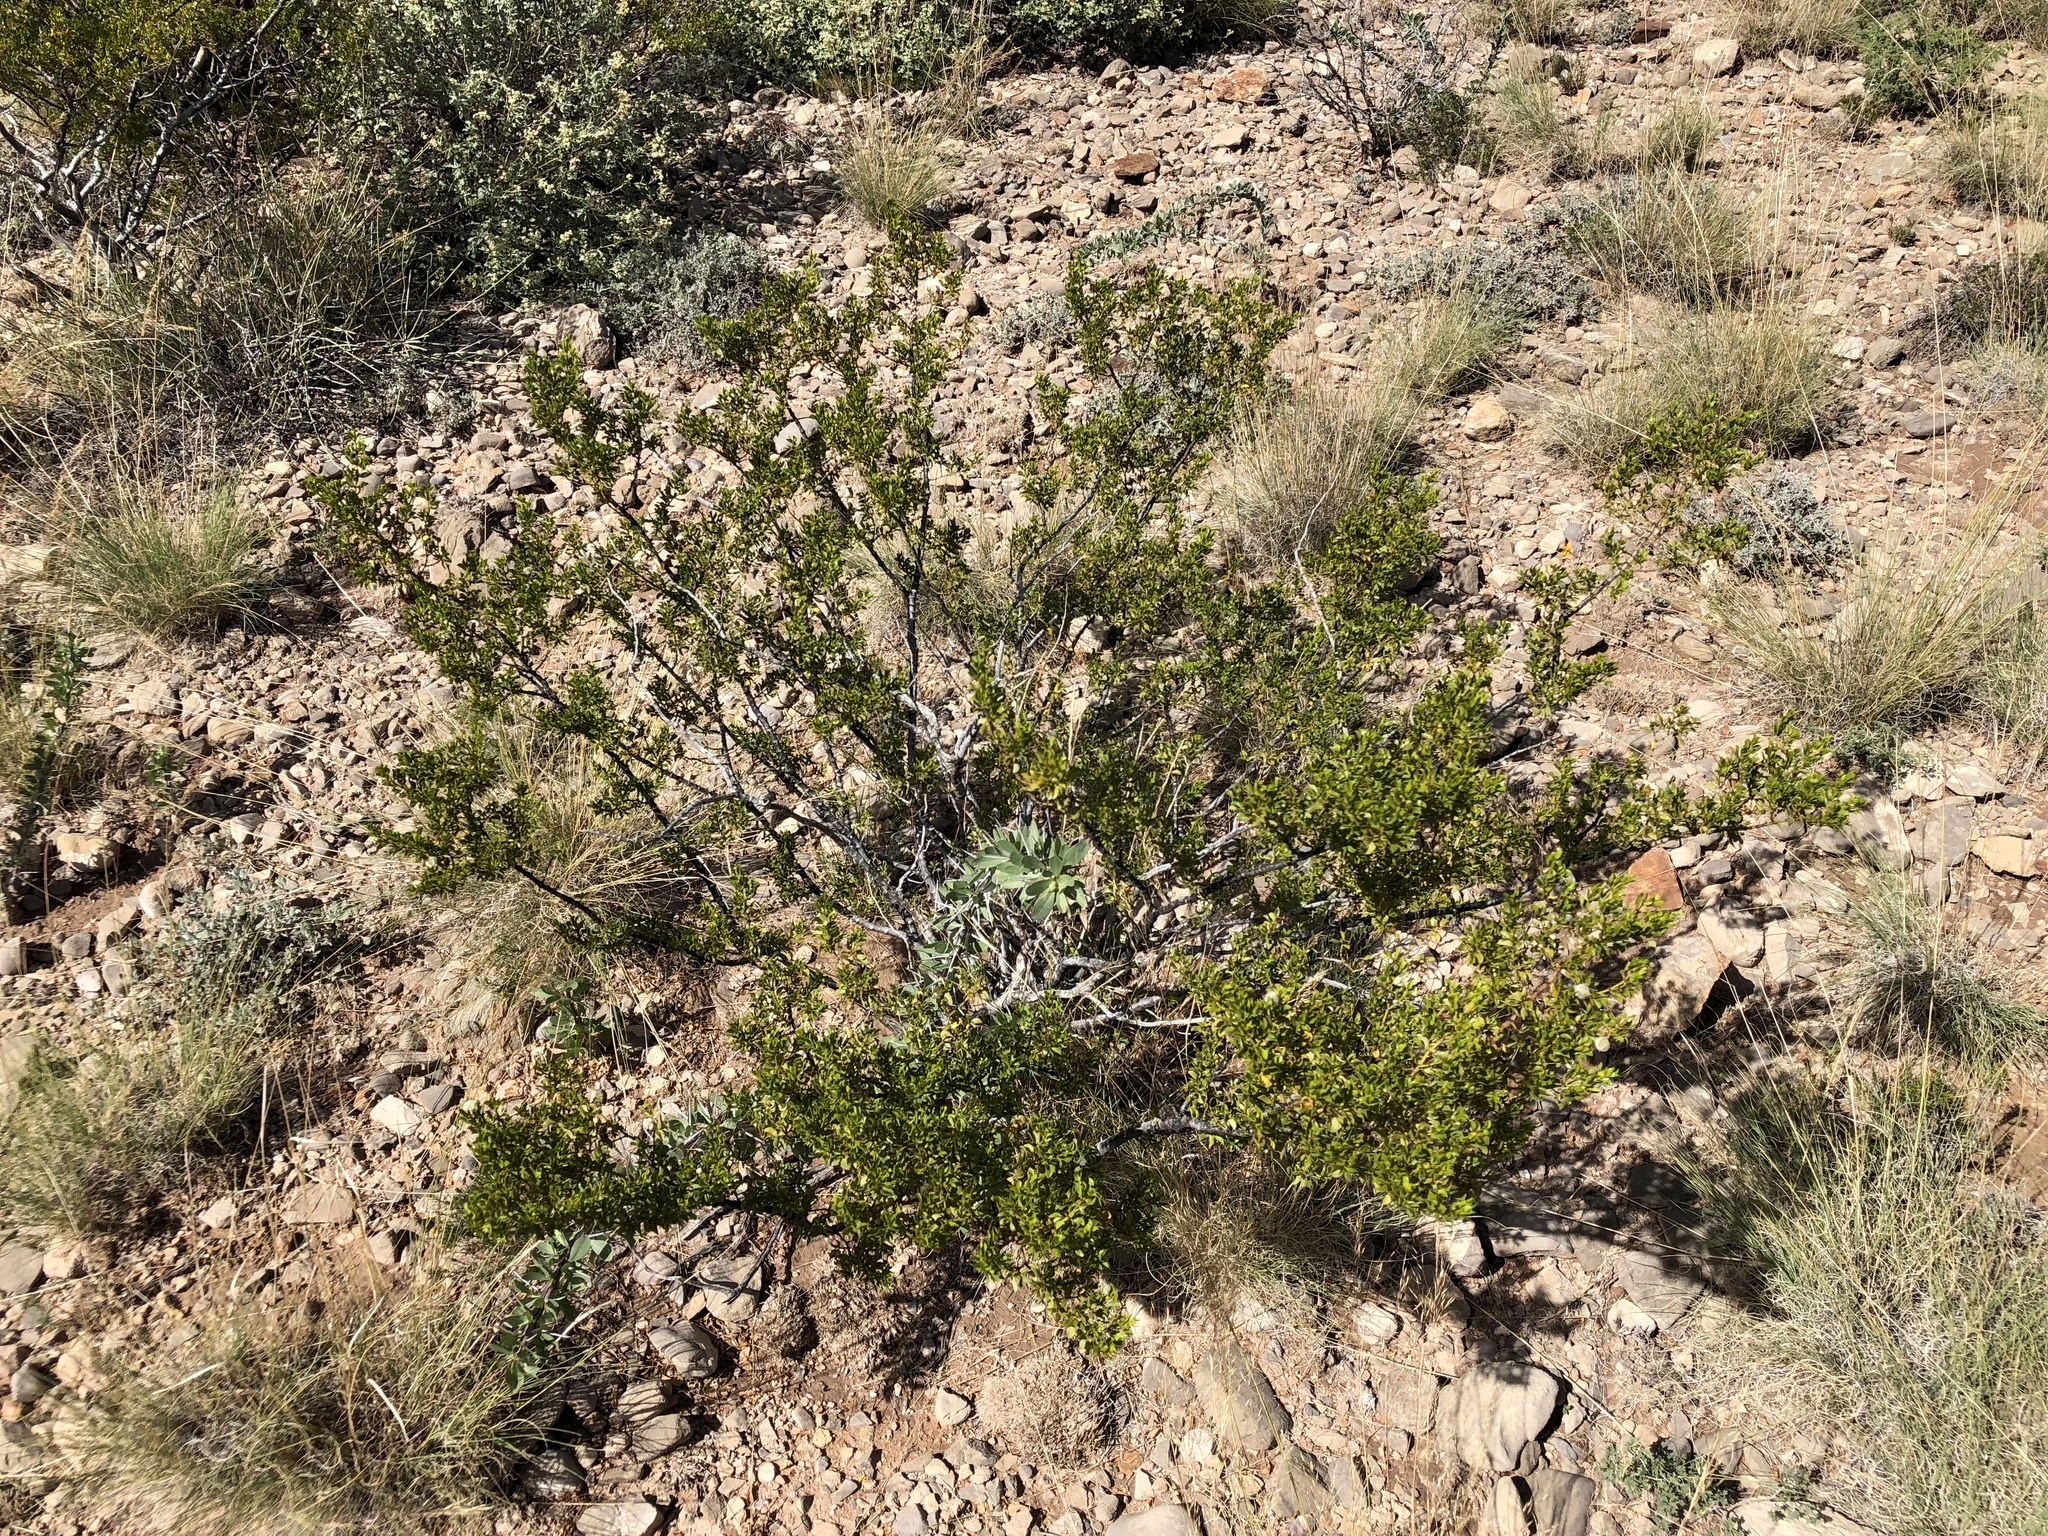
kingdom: Plantae
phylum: Tracheophyta
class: Magnoliopsida
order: Zygophyllales
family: Zygophyllaceae
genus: Larrea
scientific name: Larrea tridentata
